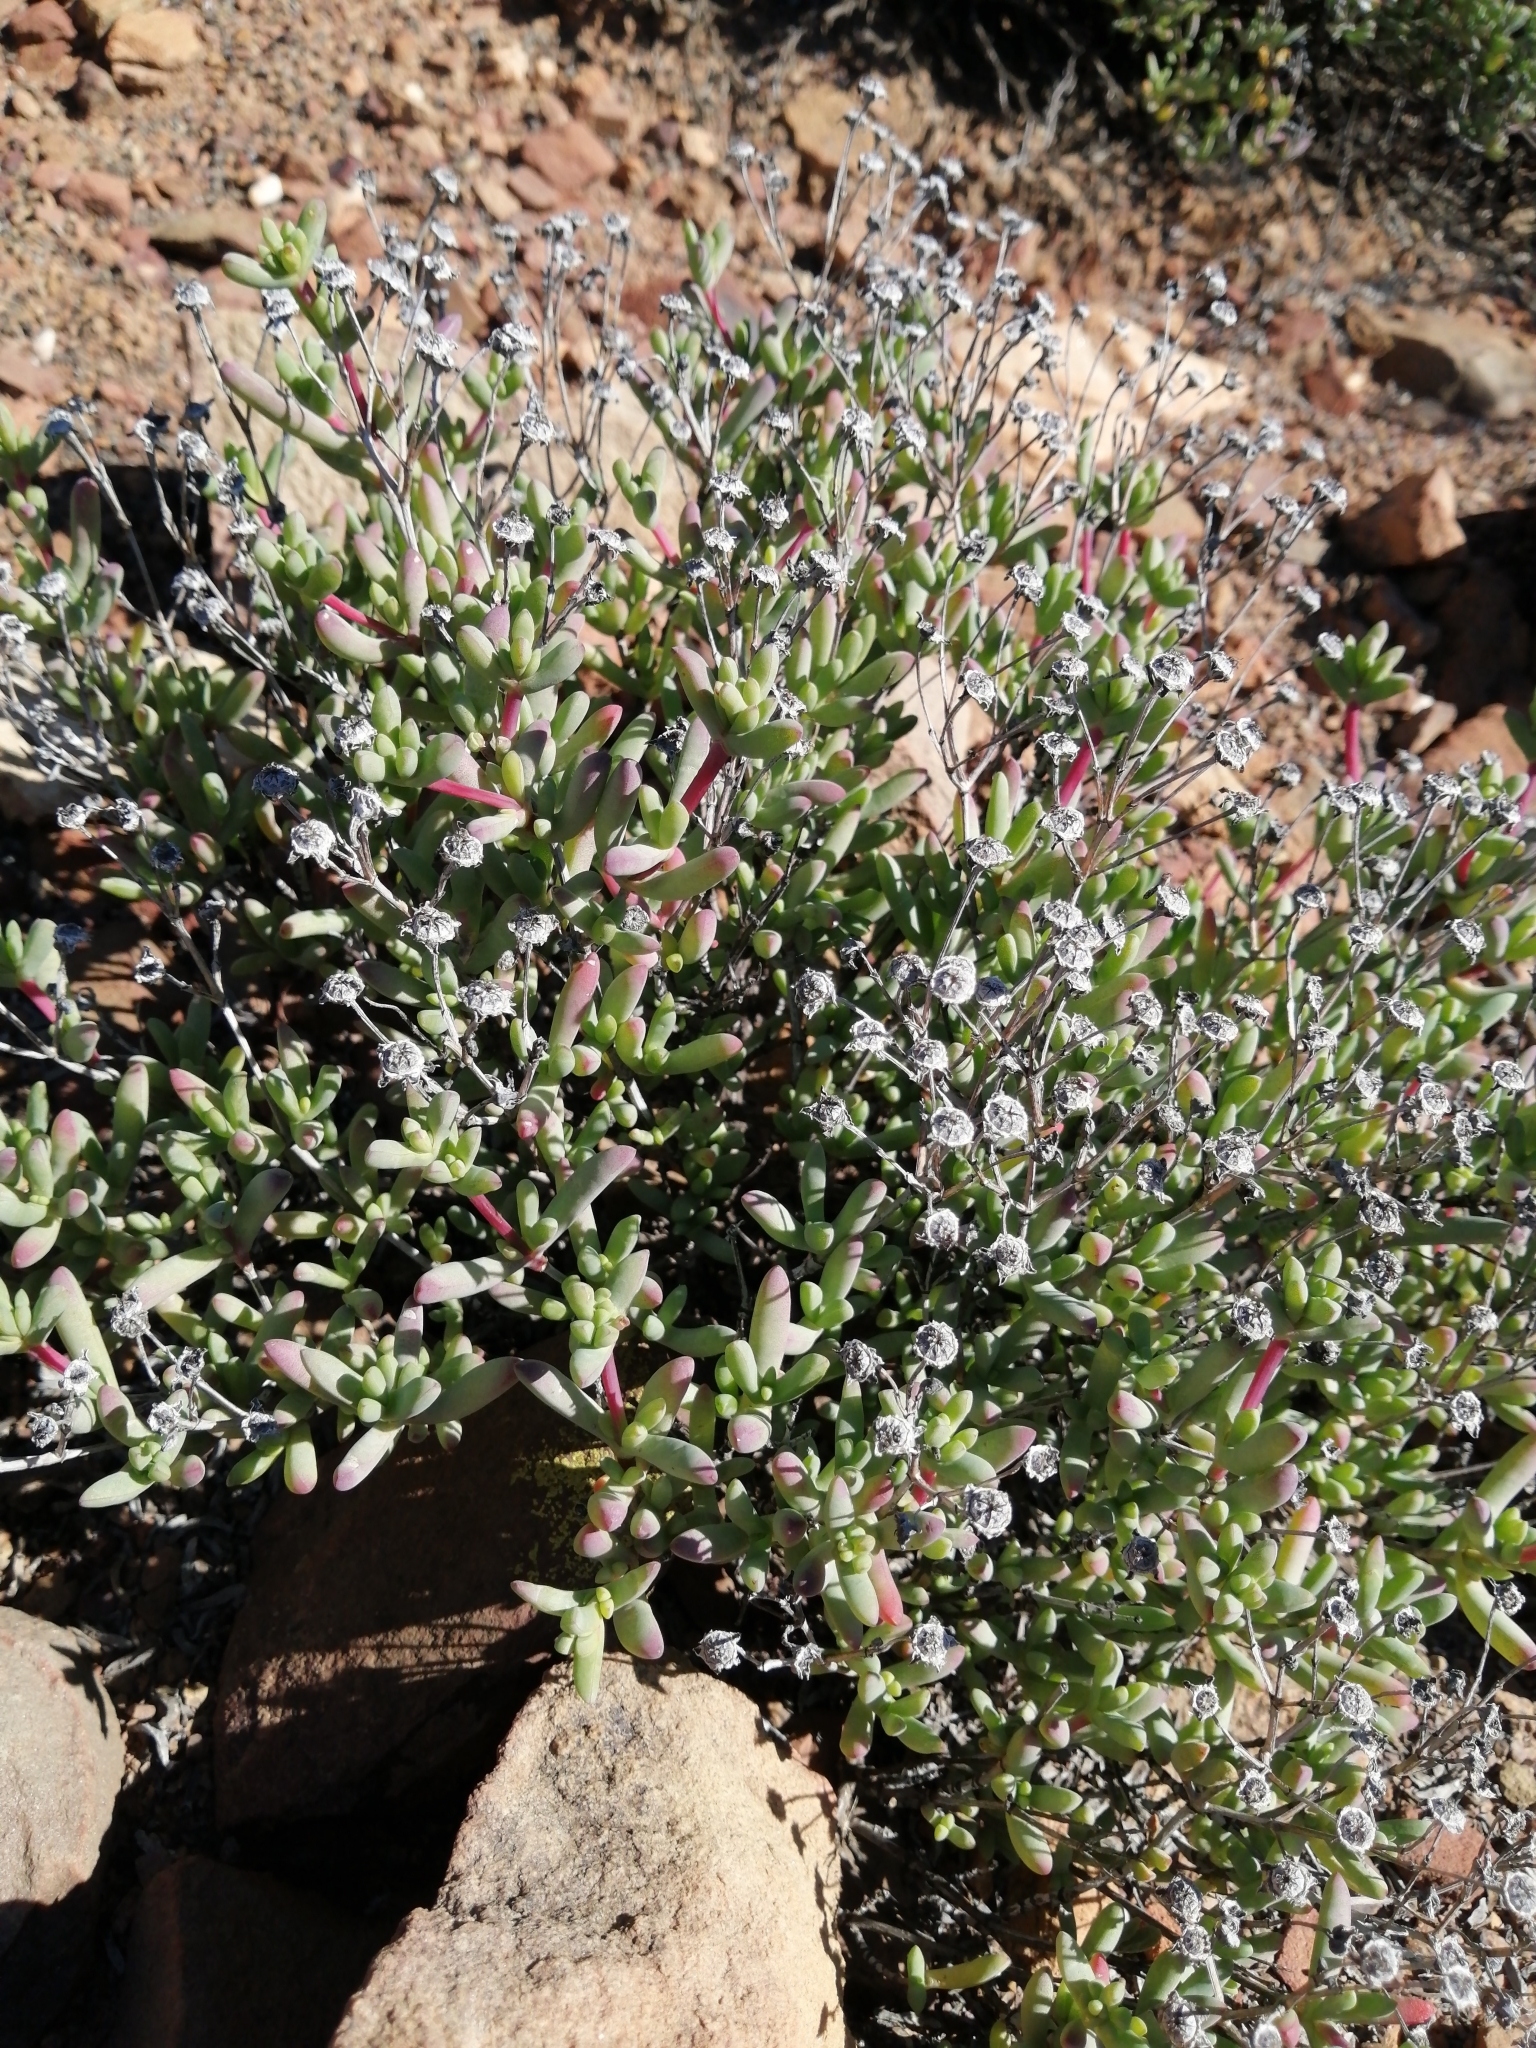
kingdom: Plantae
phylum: Tracheophyta
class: Magnoliopsida
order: Caryophyllales
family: Aizoaceae
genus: Leipoldtia
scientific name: Leipoldtia schultzei
